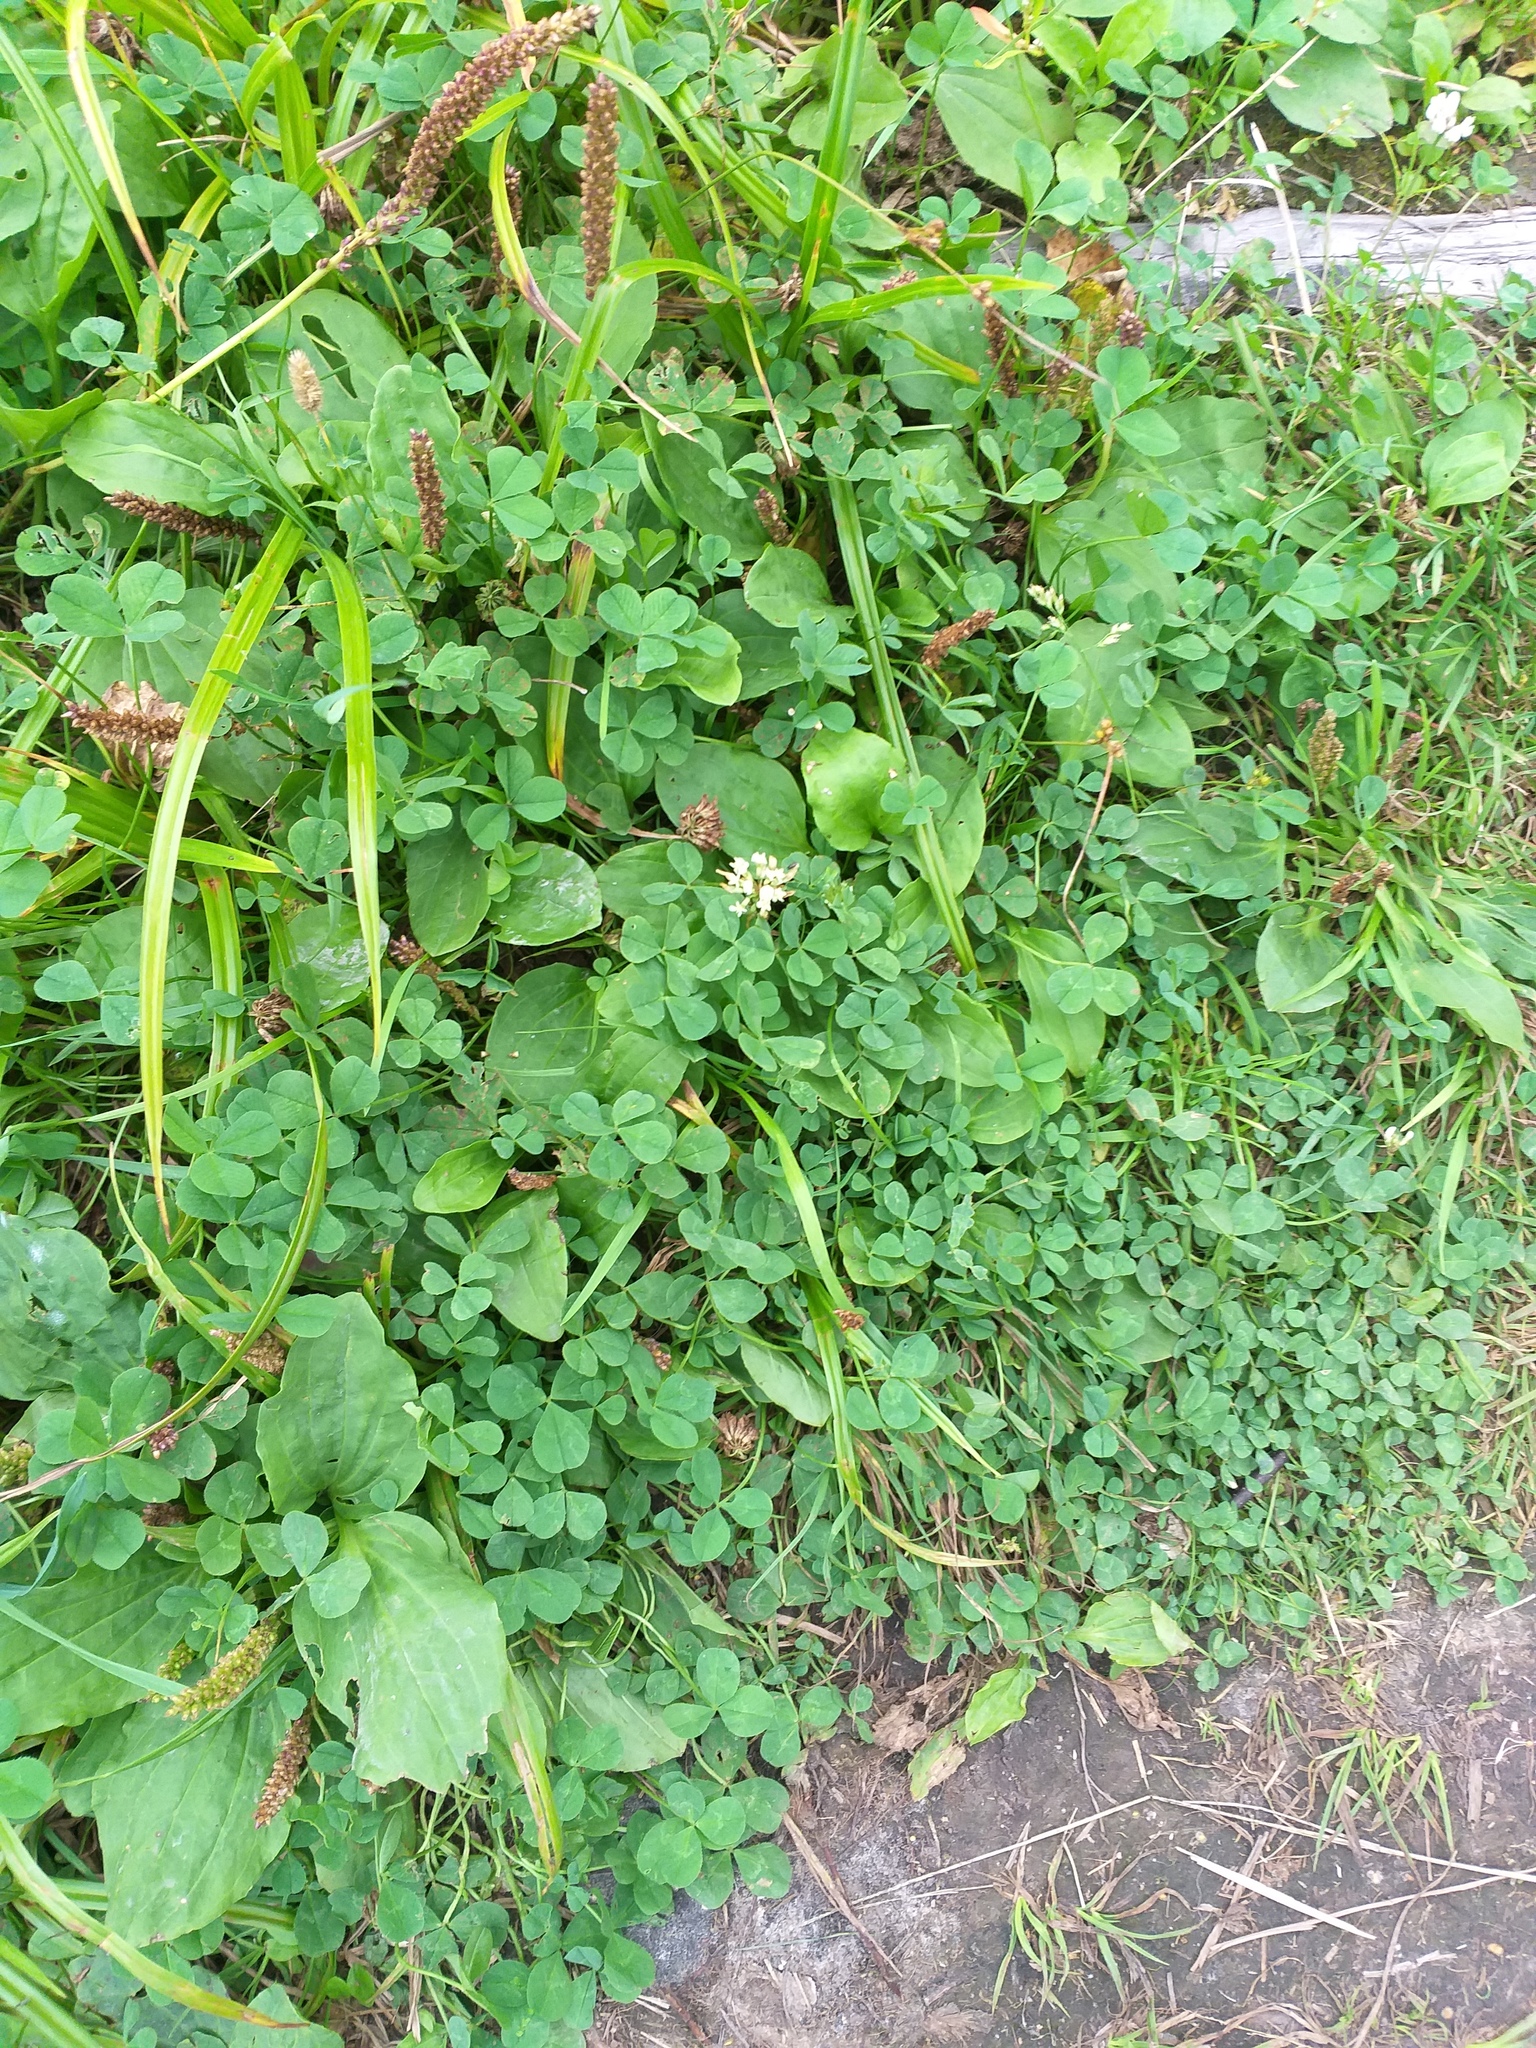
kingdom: Plantae
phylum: Tracheophyta
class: Magnoliopsida
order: Fabales
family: Fabaceae
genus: Trifolium
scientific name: Trifolium repens
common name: White clover
